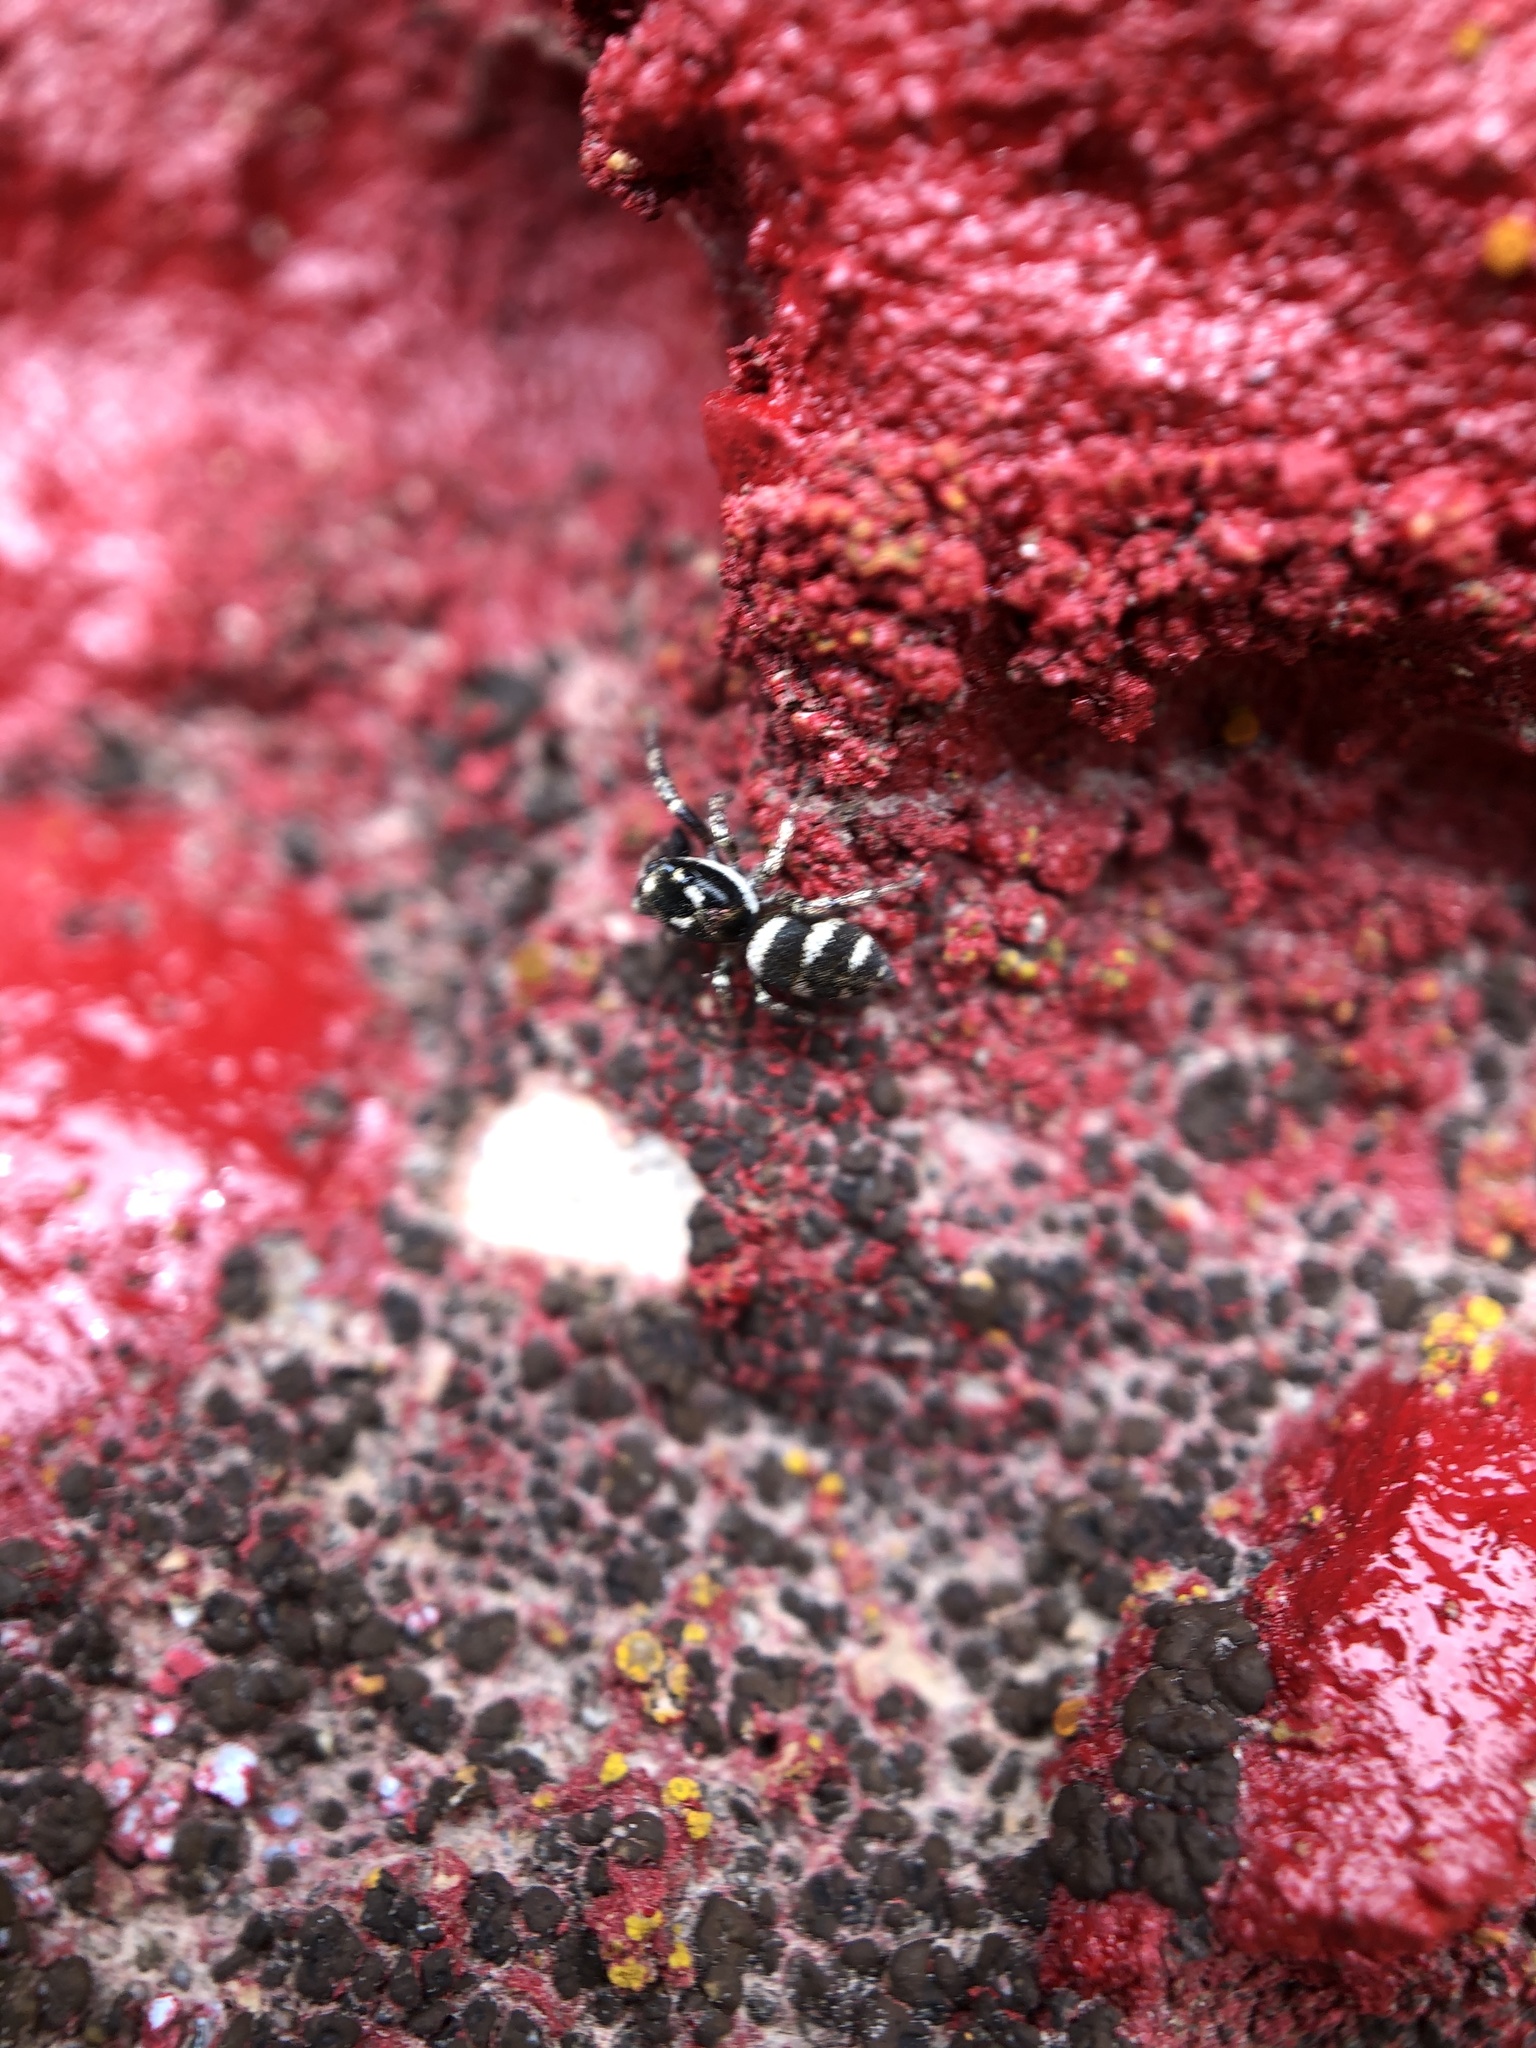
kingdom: Animalia
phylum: Arthropoda
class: Arachnida
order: Araneae
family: Salticidae
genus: Salticus
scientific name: Salticus scenicus
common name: Zebra jumper
